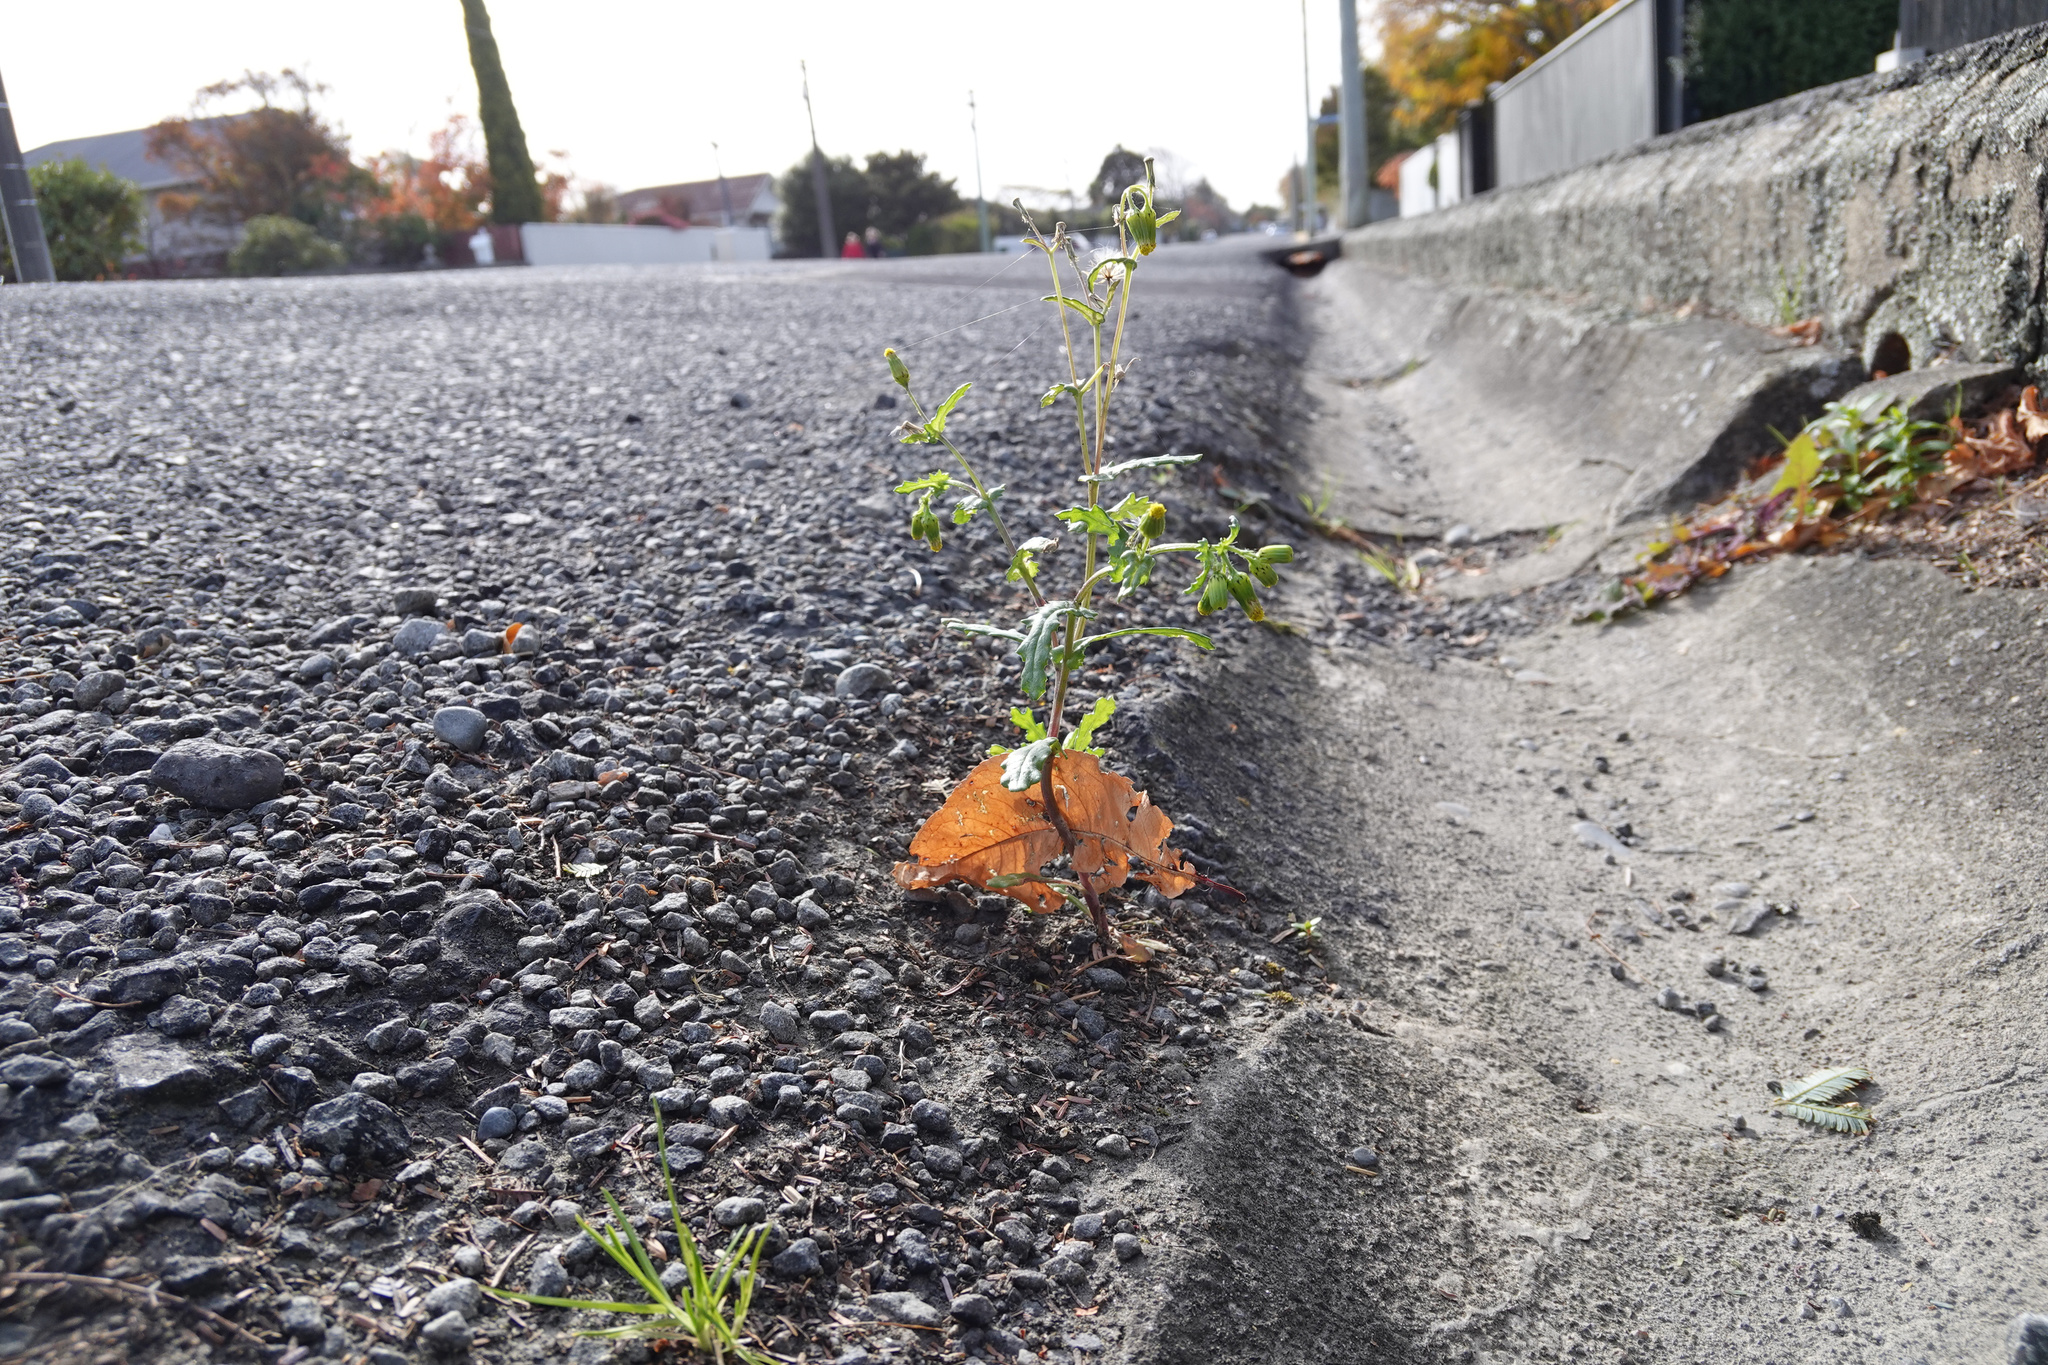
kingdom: Plantae
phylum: Tracheophyta
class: Magnoliopsida
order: Asterales
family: Asteraceae
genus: Senecio
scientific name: Senecio vulgaris
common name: Old-man-in-the-spring
